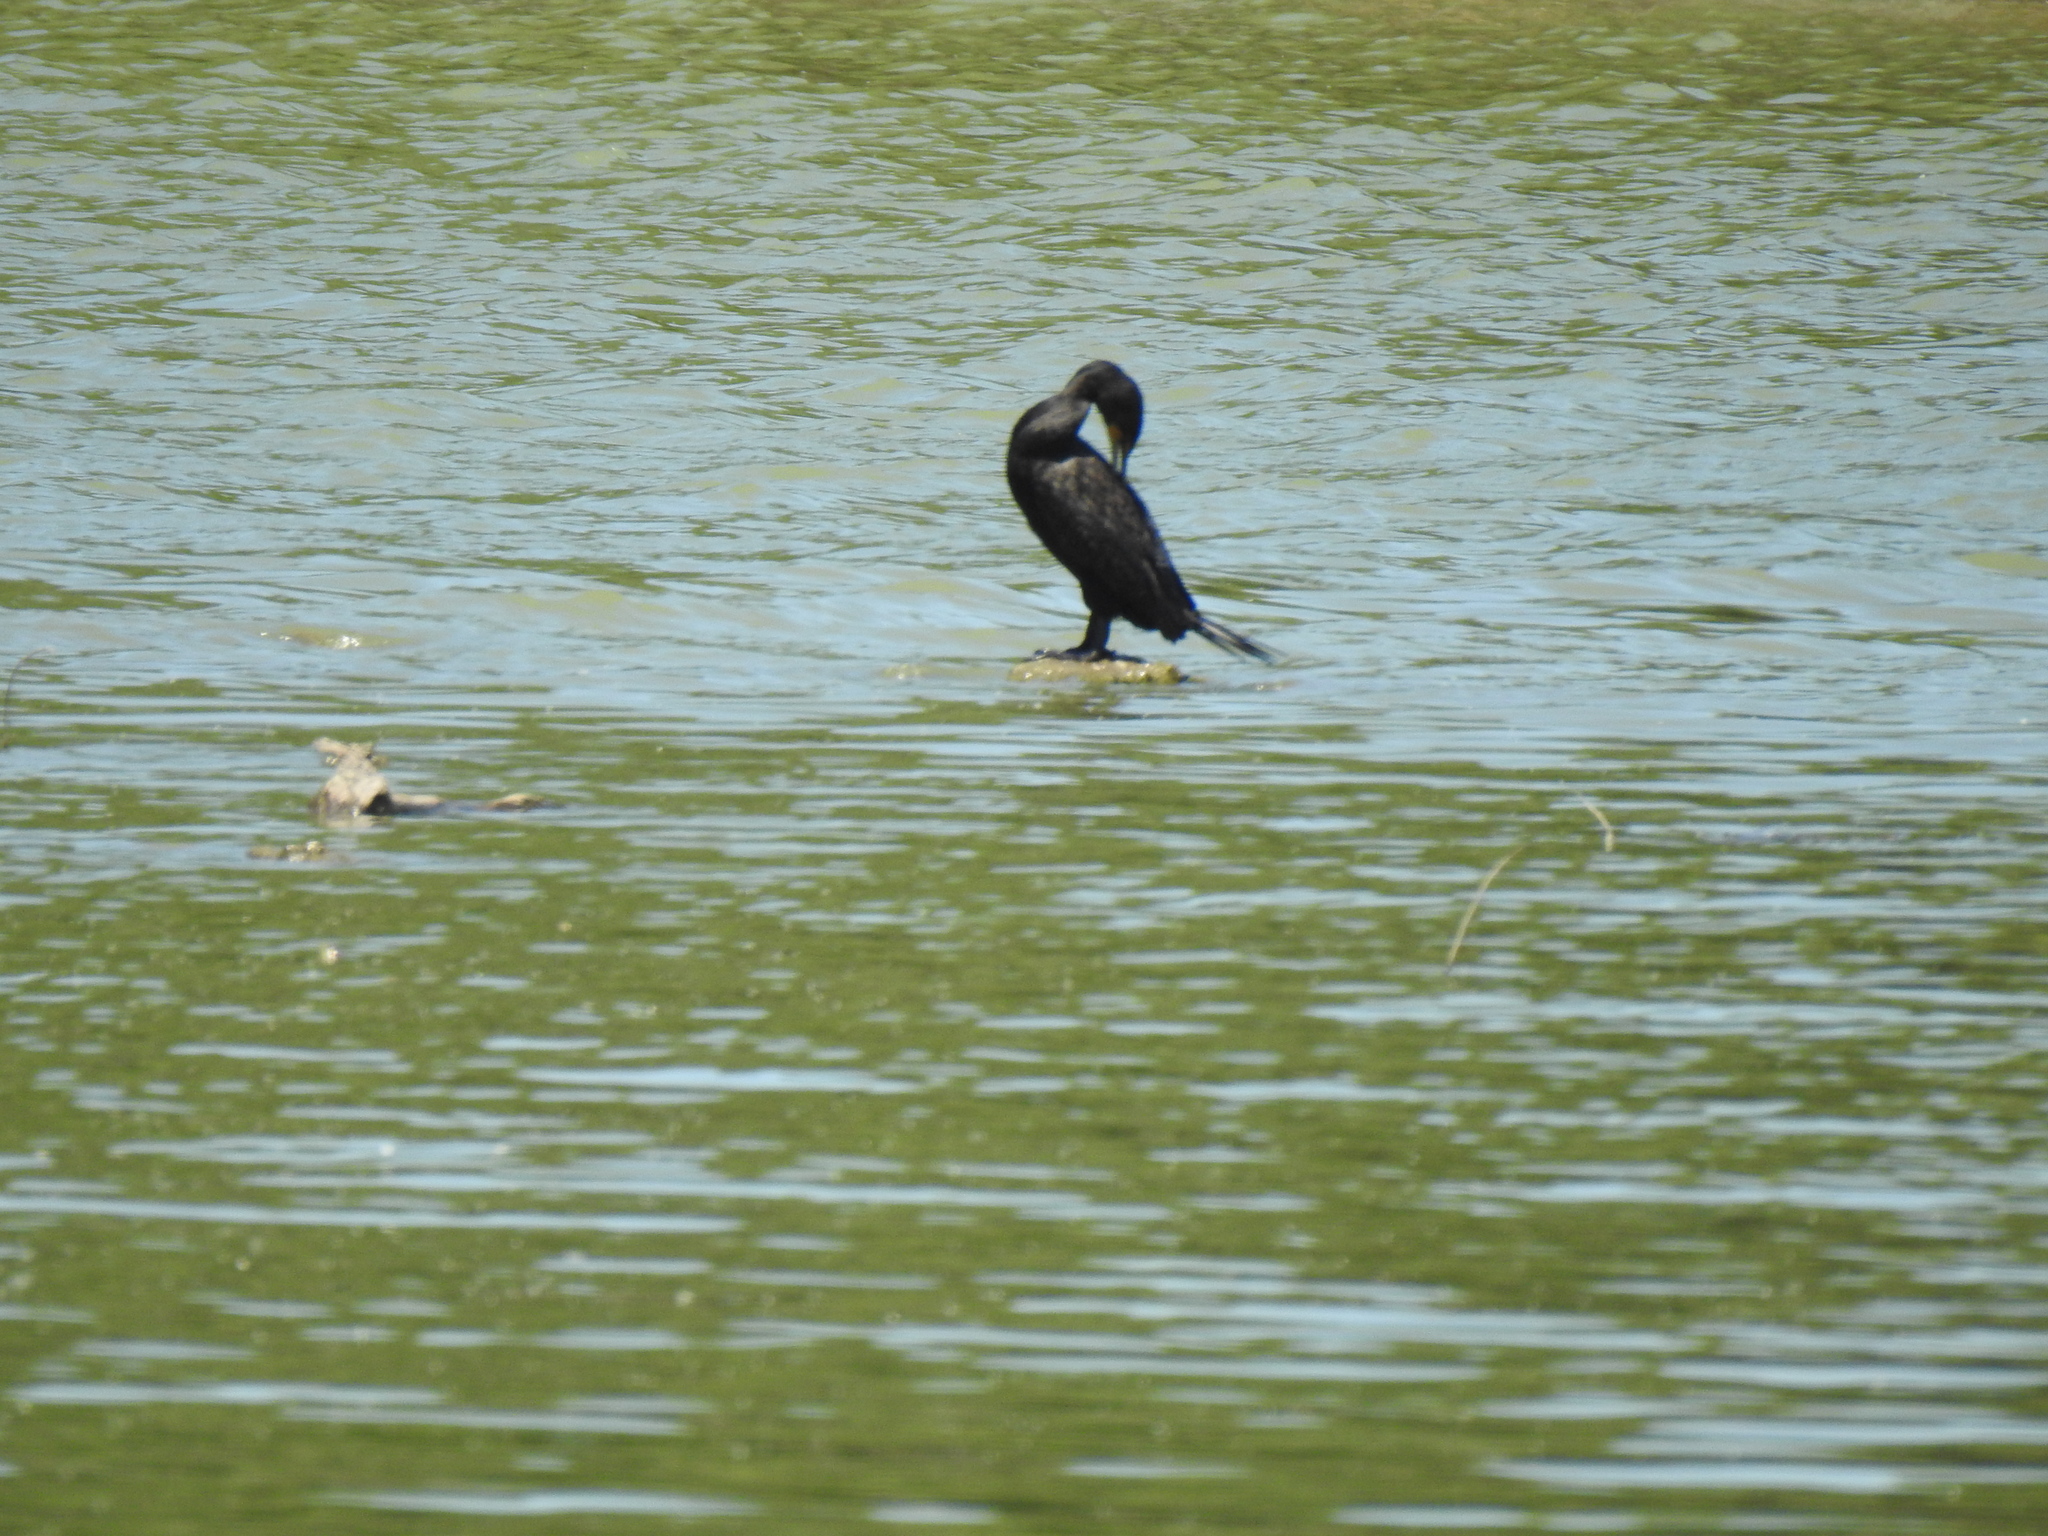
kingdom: Animalia
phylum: Chordata
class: Aves
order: Suliformes
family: Phalacrocoracidae
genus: Phalacrocorax
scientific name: Phalacrocorax auritus
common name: Double-crested cormorant
